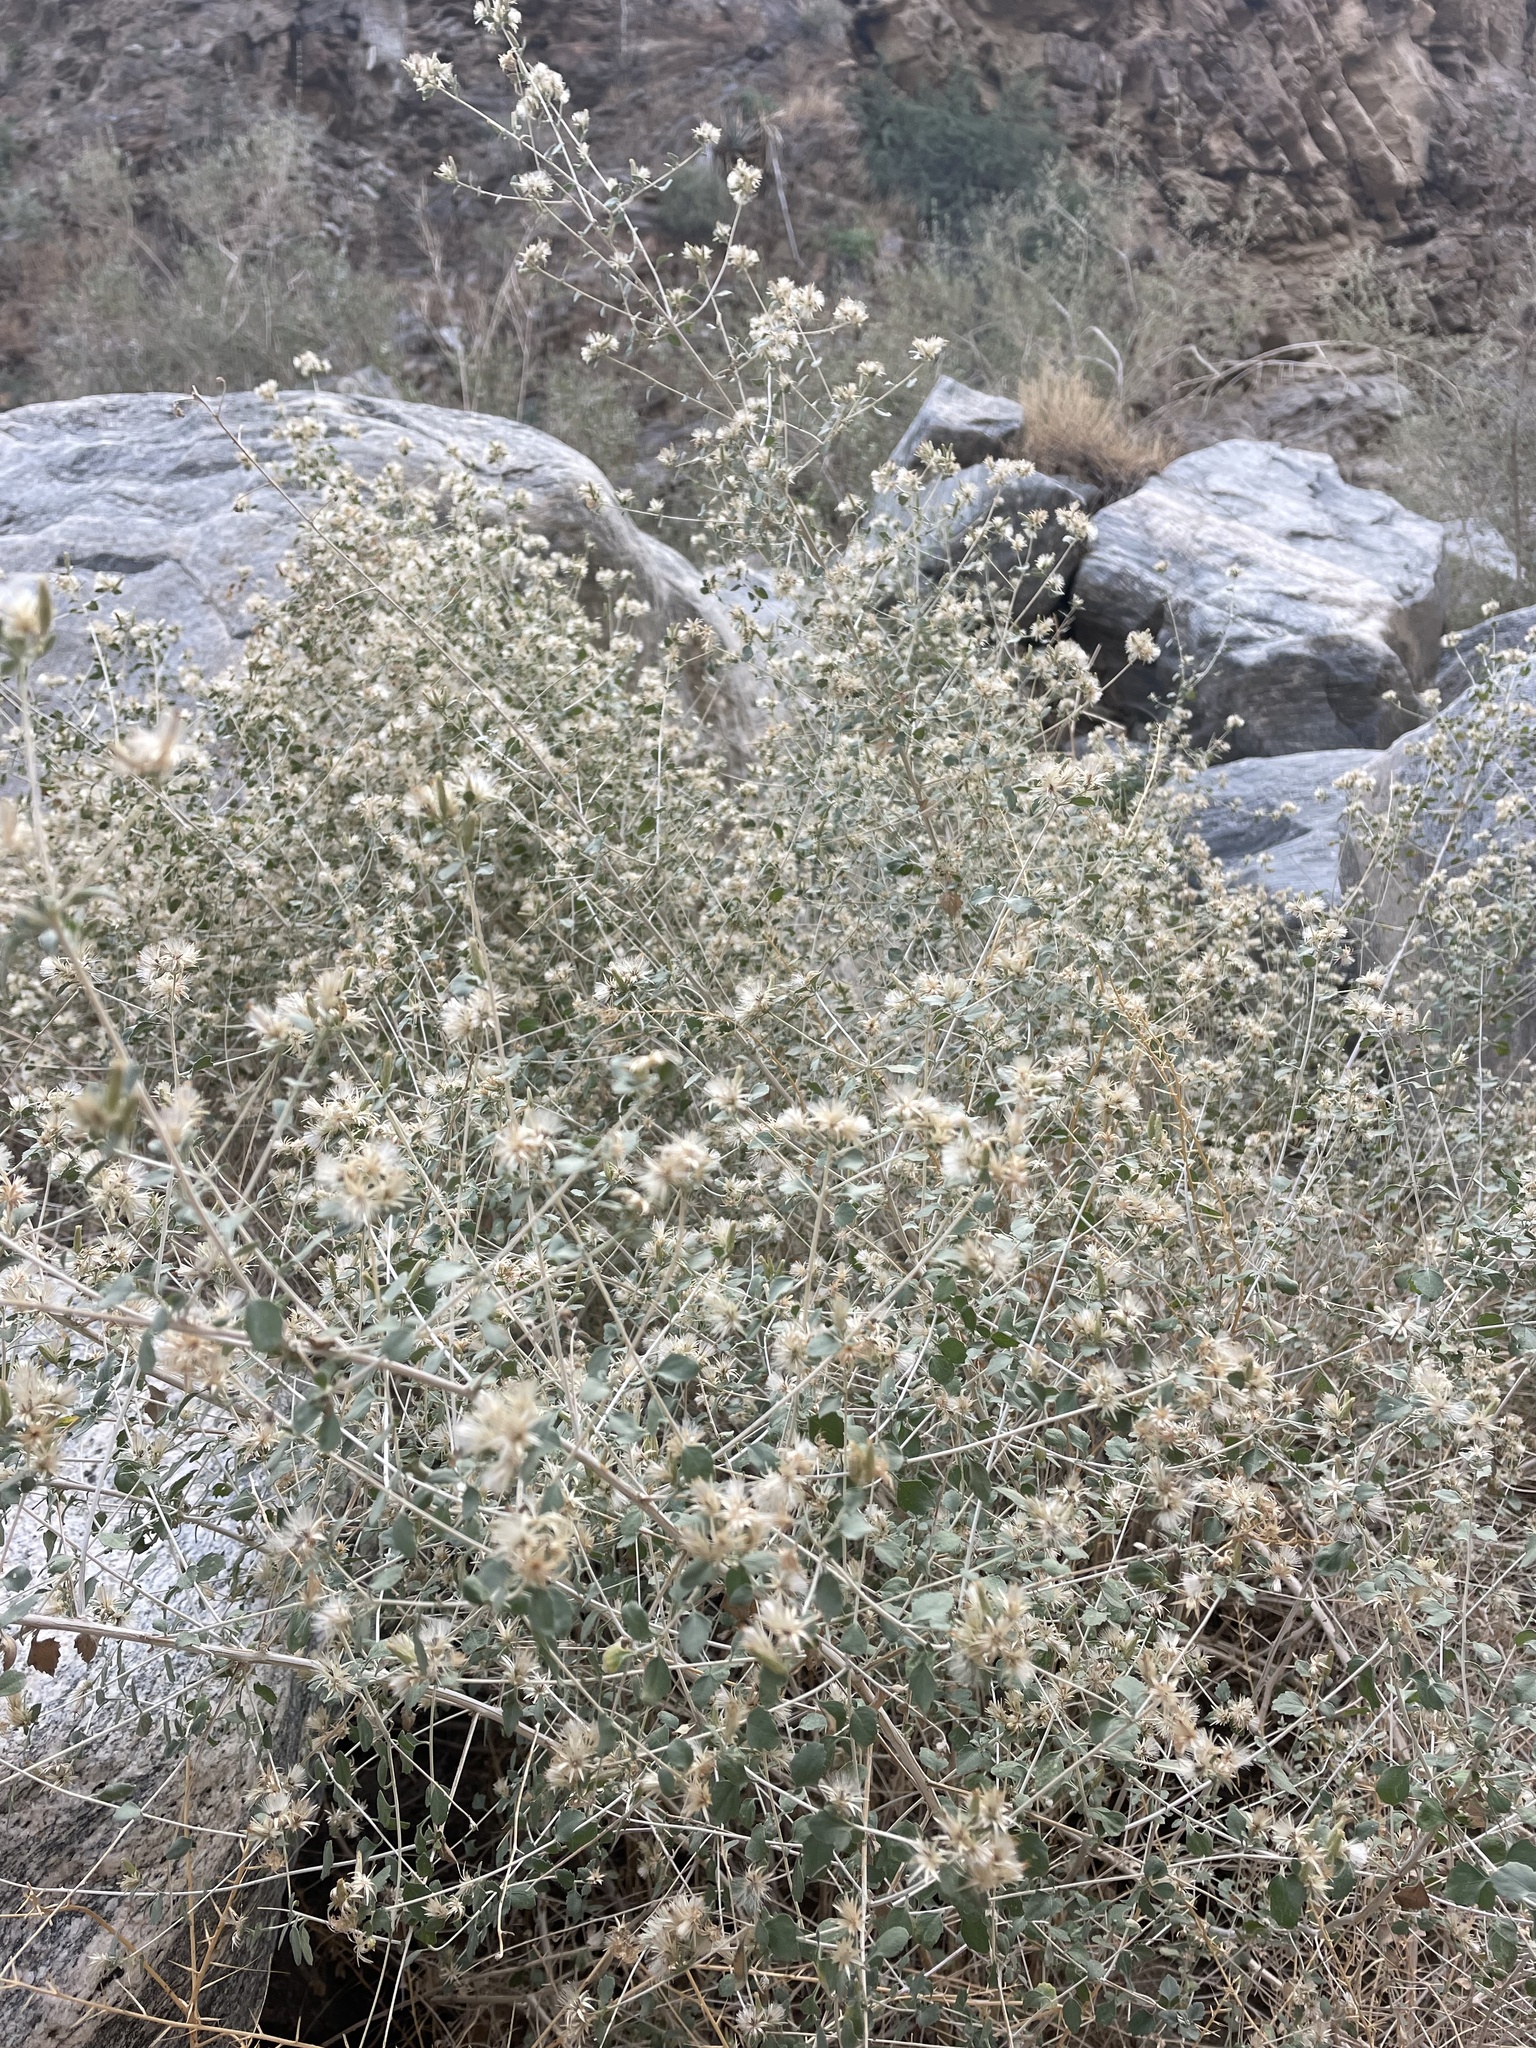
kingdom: Plantae
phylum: Tracheophyta
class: Magnoliopsida
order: Asterales
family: Asteraceae
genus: Brickellia
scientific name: Brickellia desertorum
